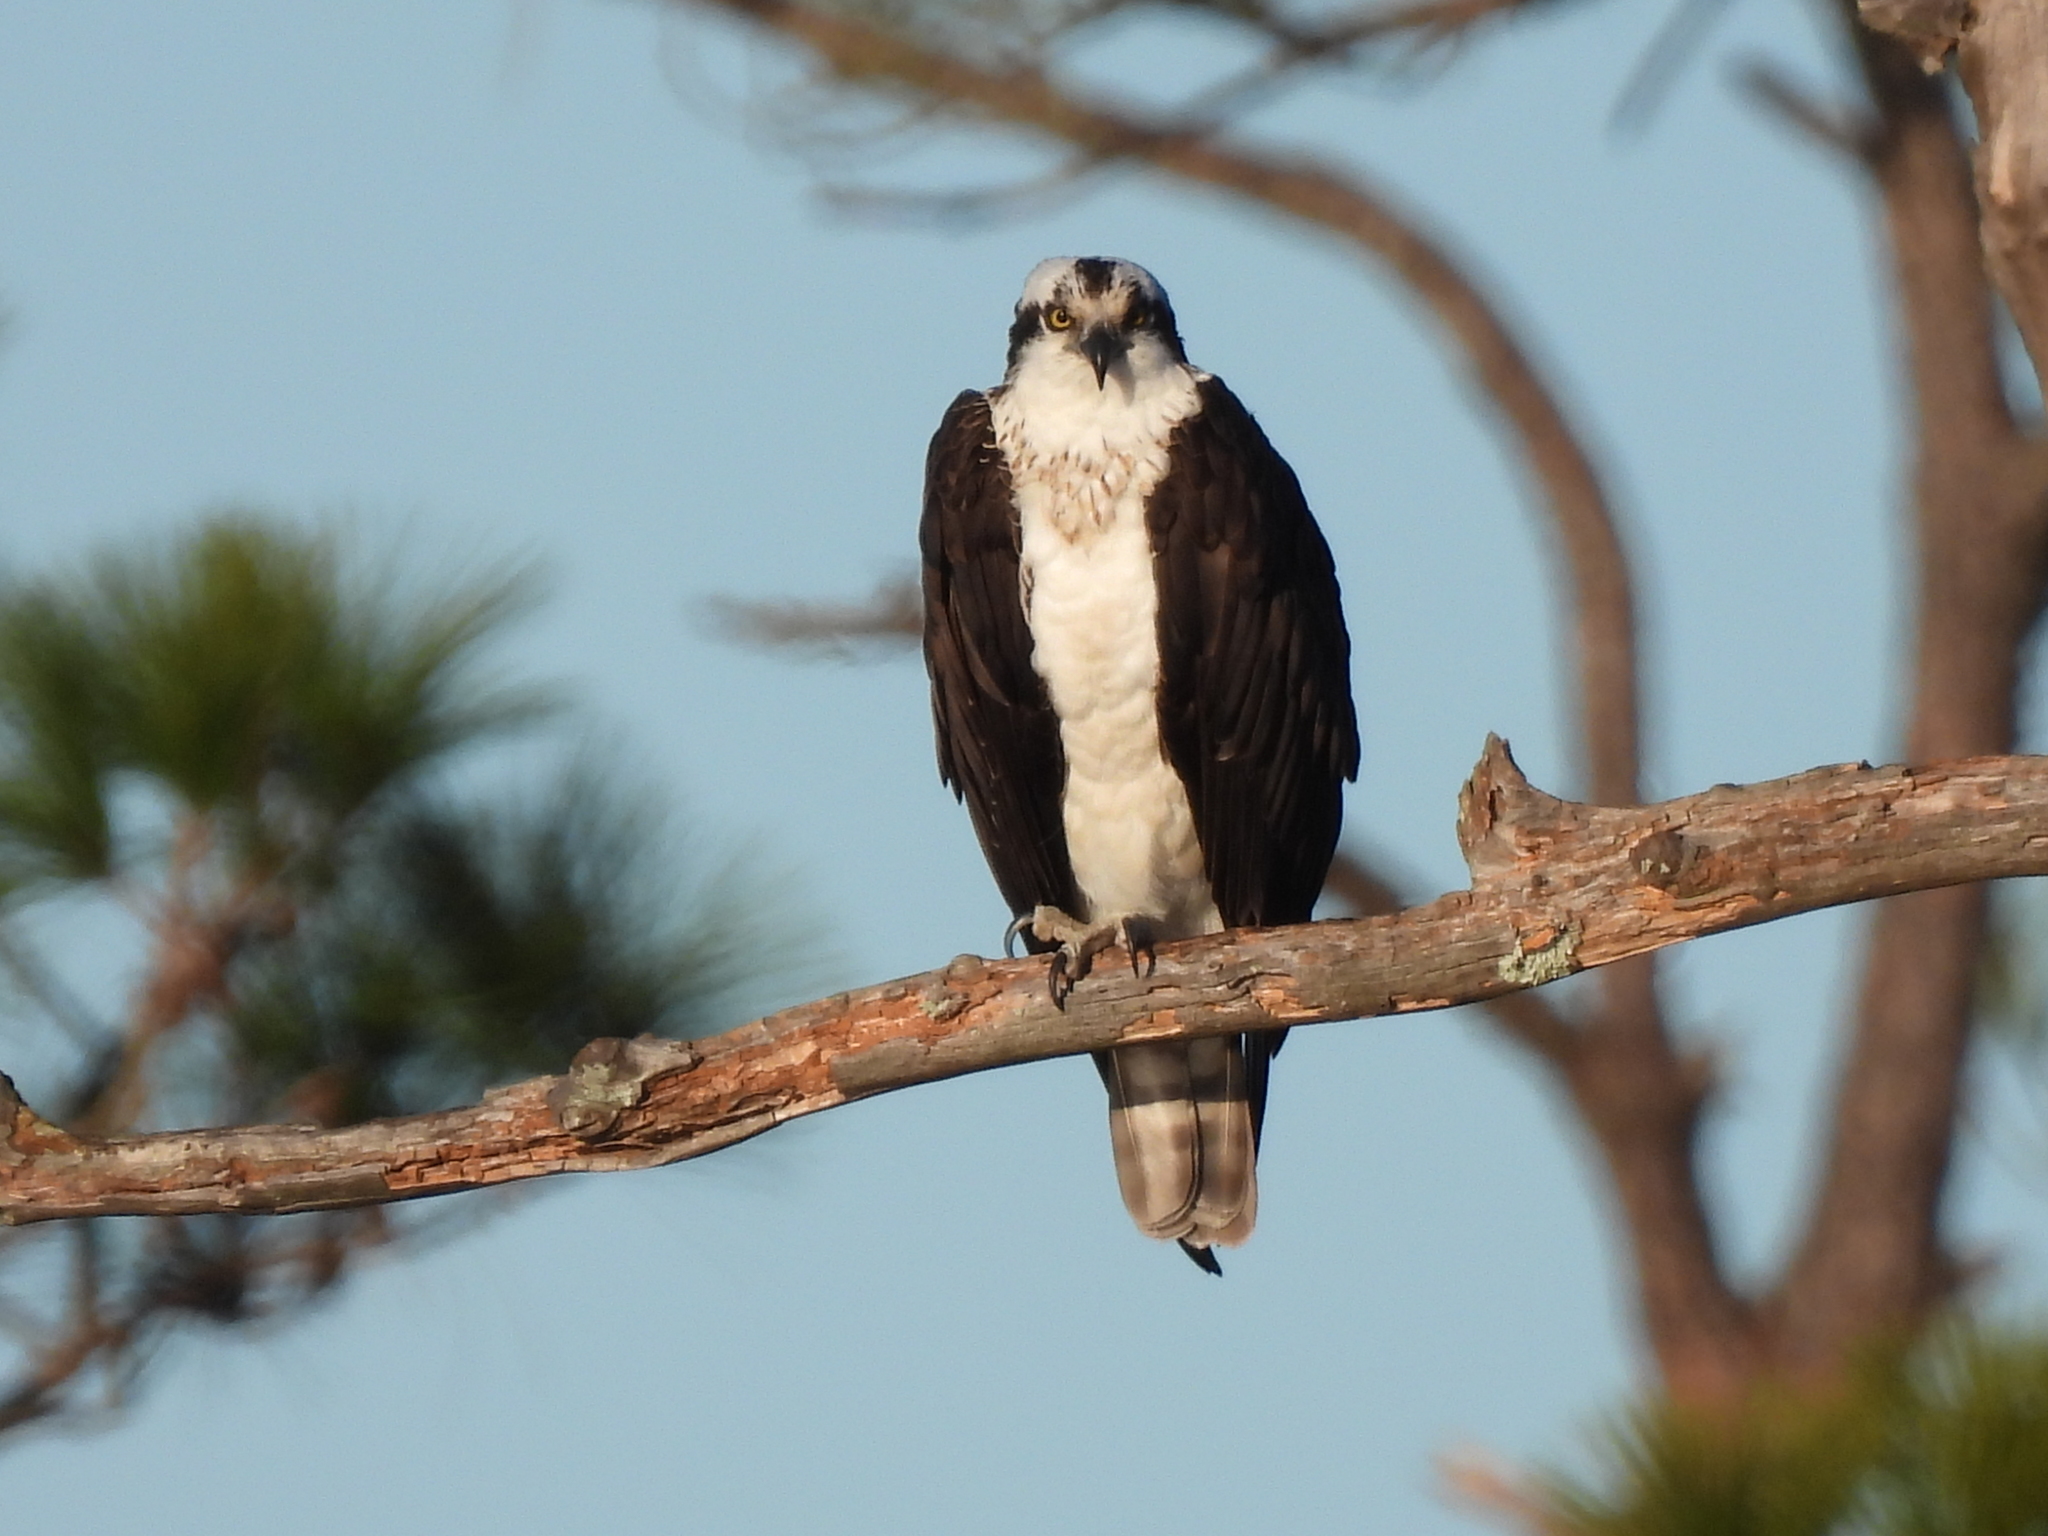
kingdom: Animalia
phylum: Chordata
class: Aves
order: Accipitriformes
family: Pandionidae
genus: Pandion
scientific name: Pandion haliaetus
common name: Osprey
